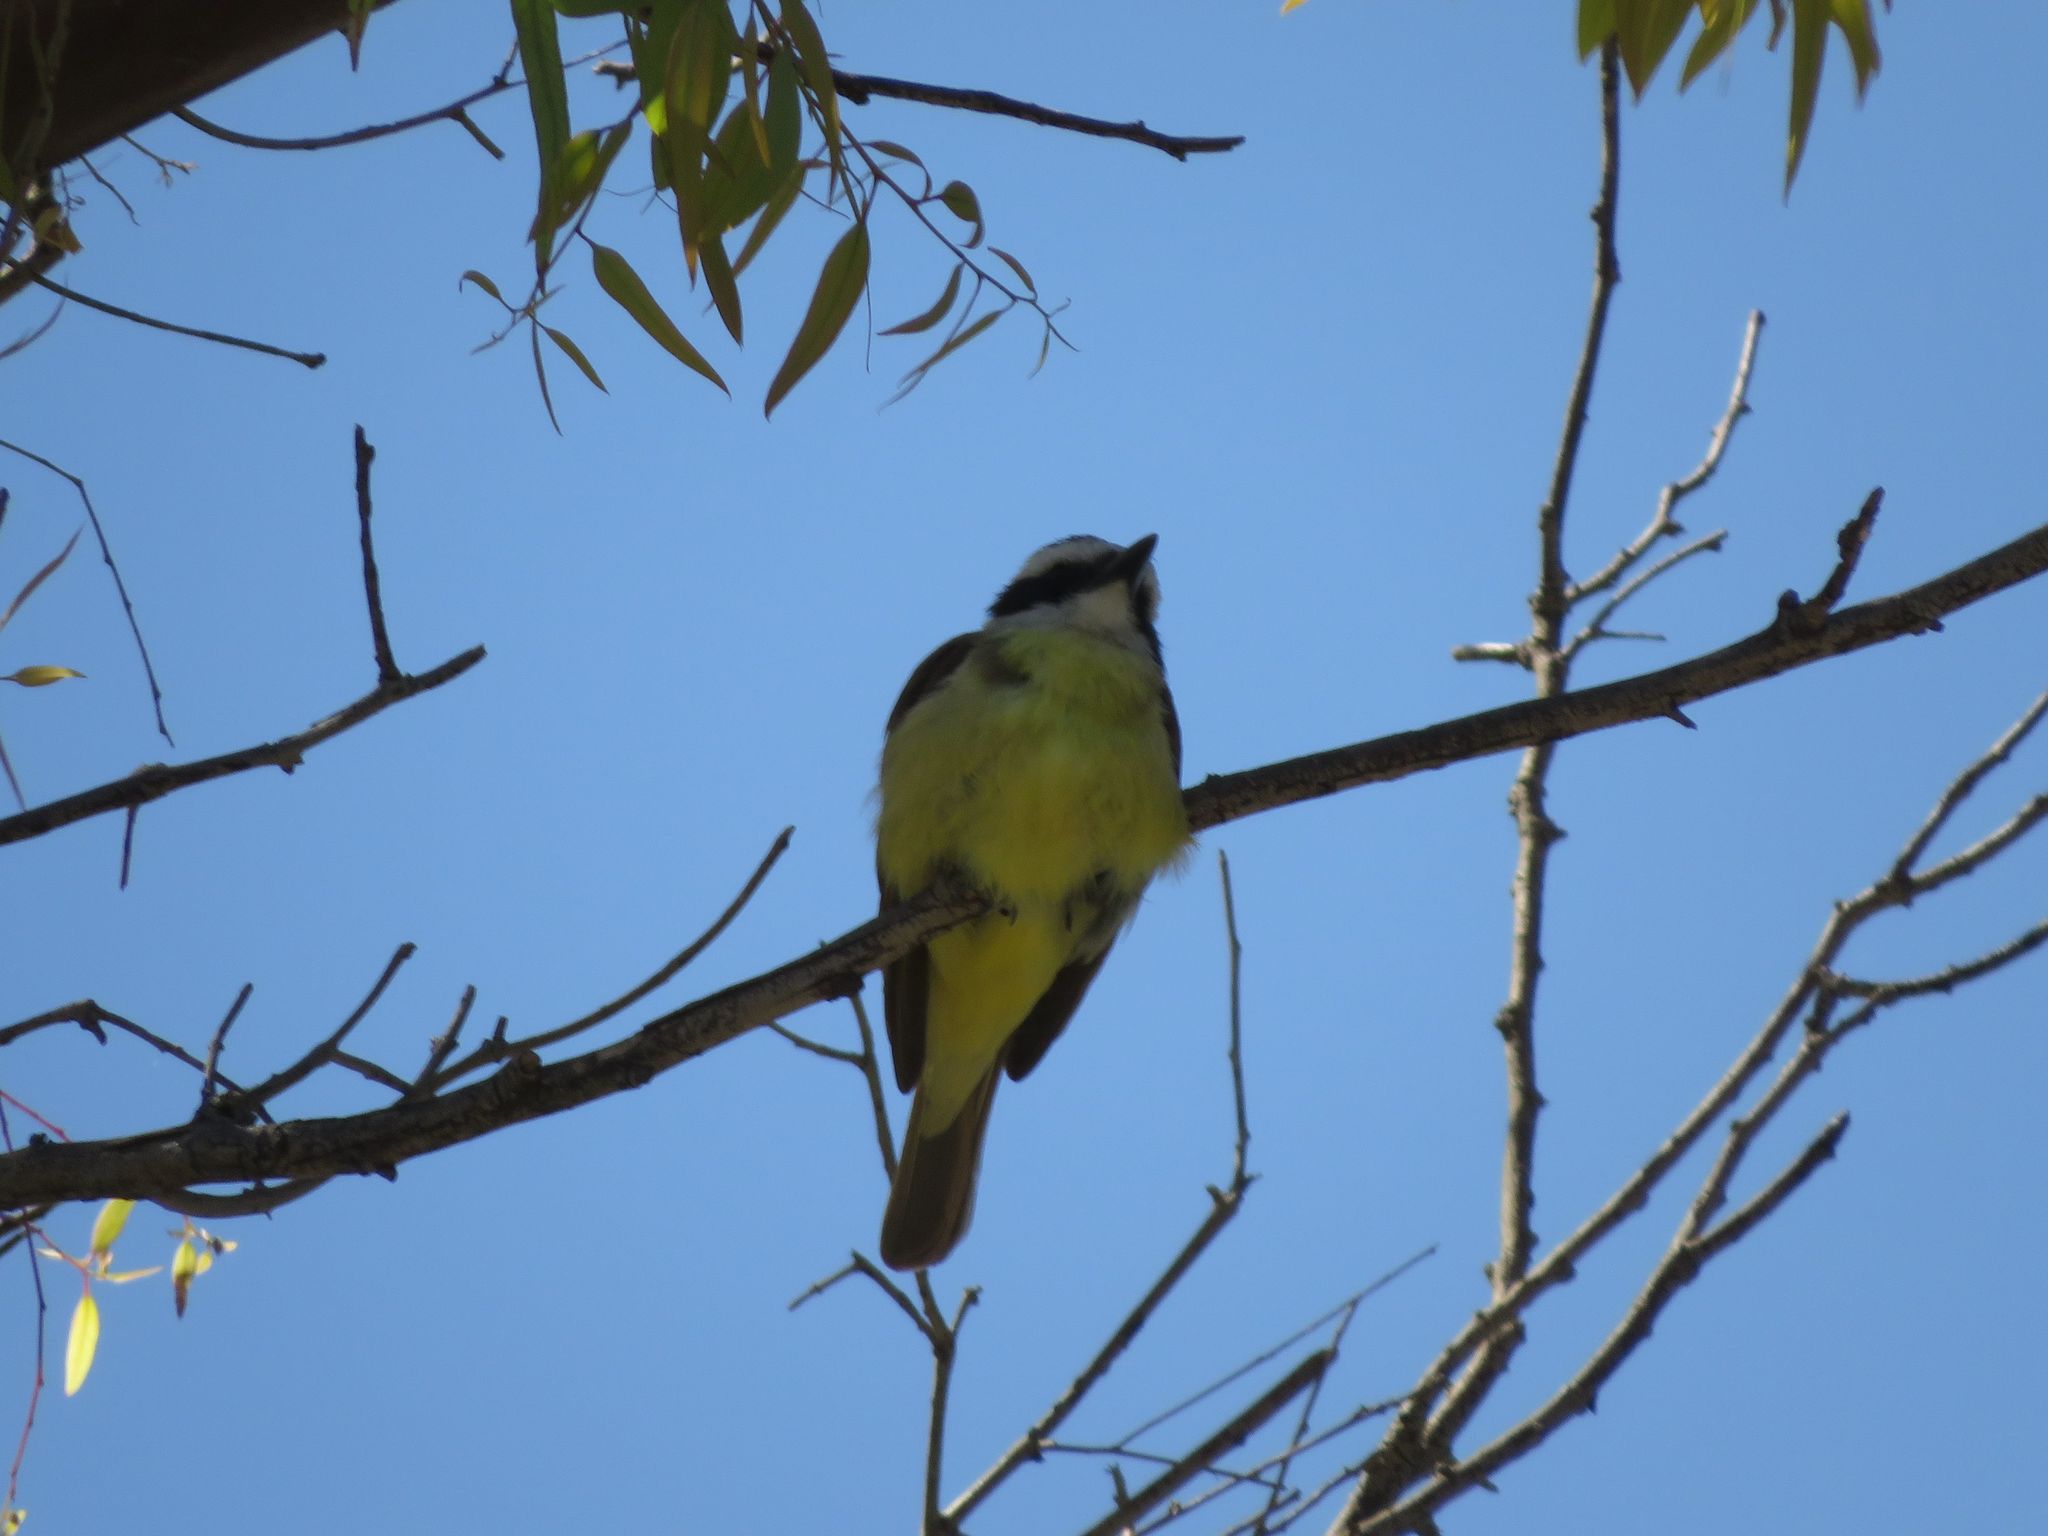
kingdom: Animalia
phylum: Chordata
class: Aves
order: Passeriformes
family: Tyrannidae
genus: Pitangus
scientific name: Pitangus sulphuratus
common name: Great kiskadee
